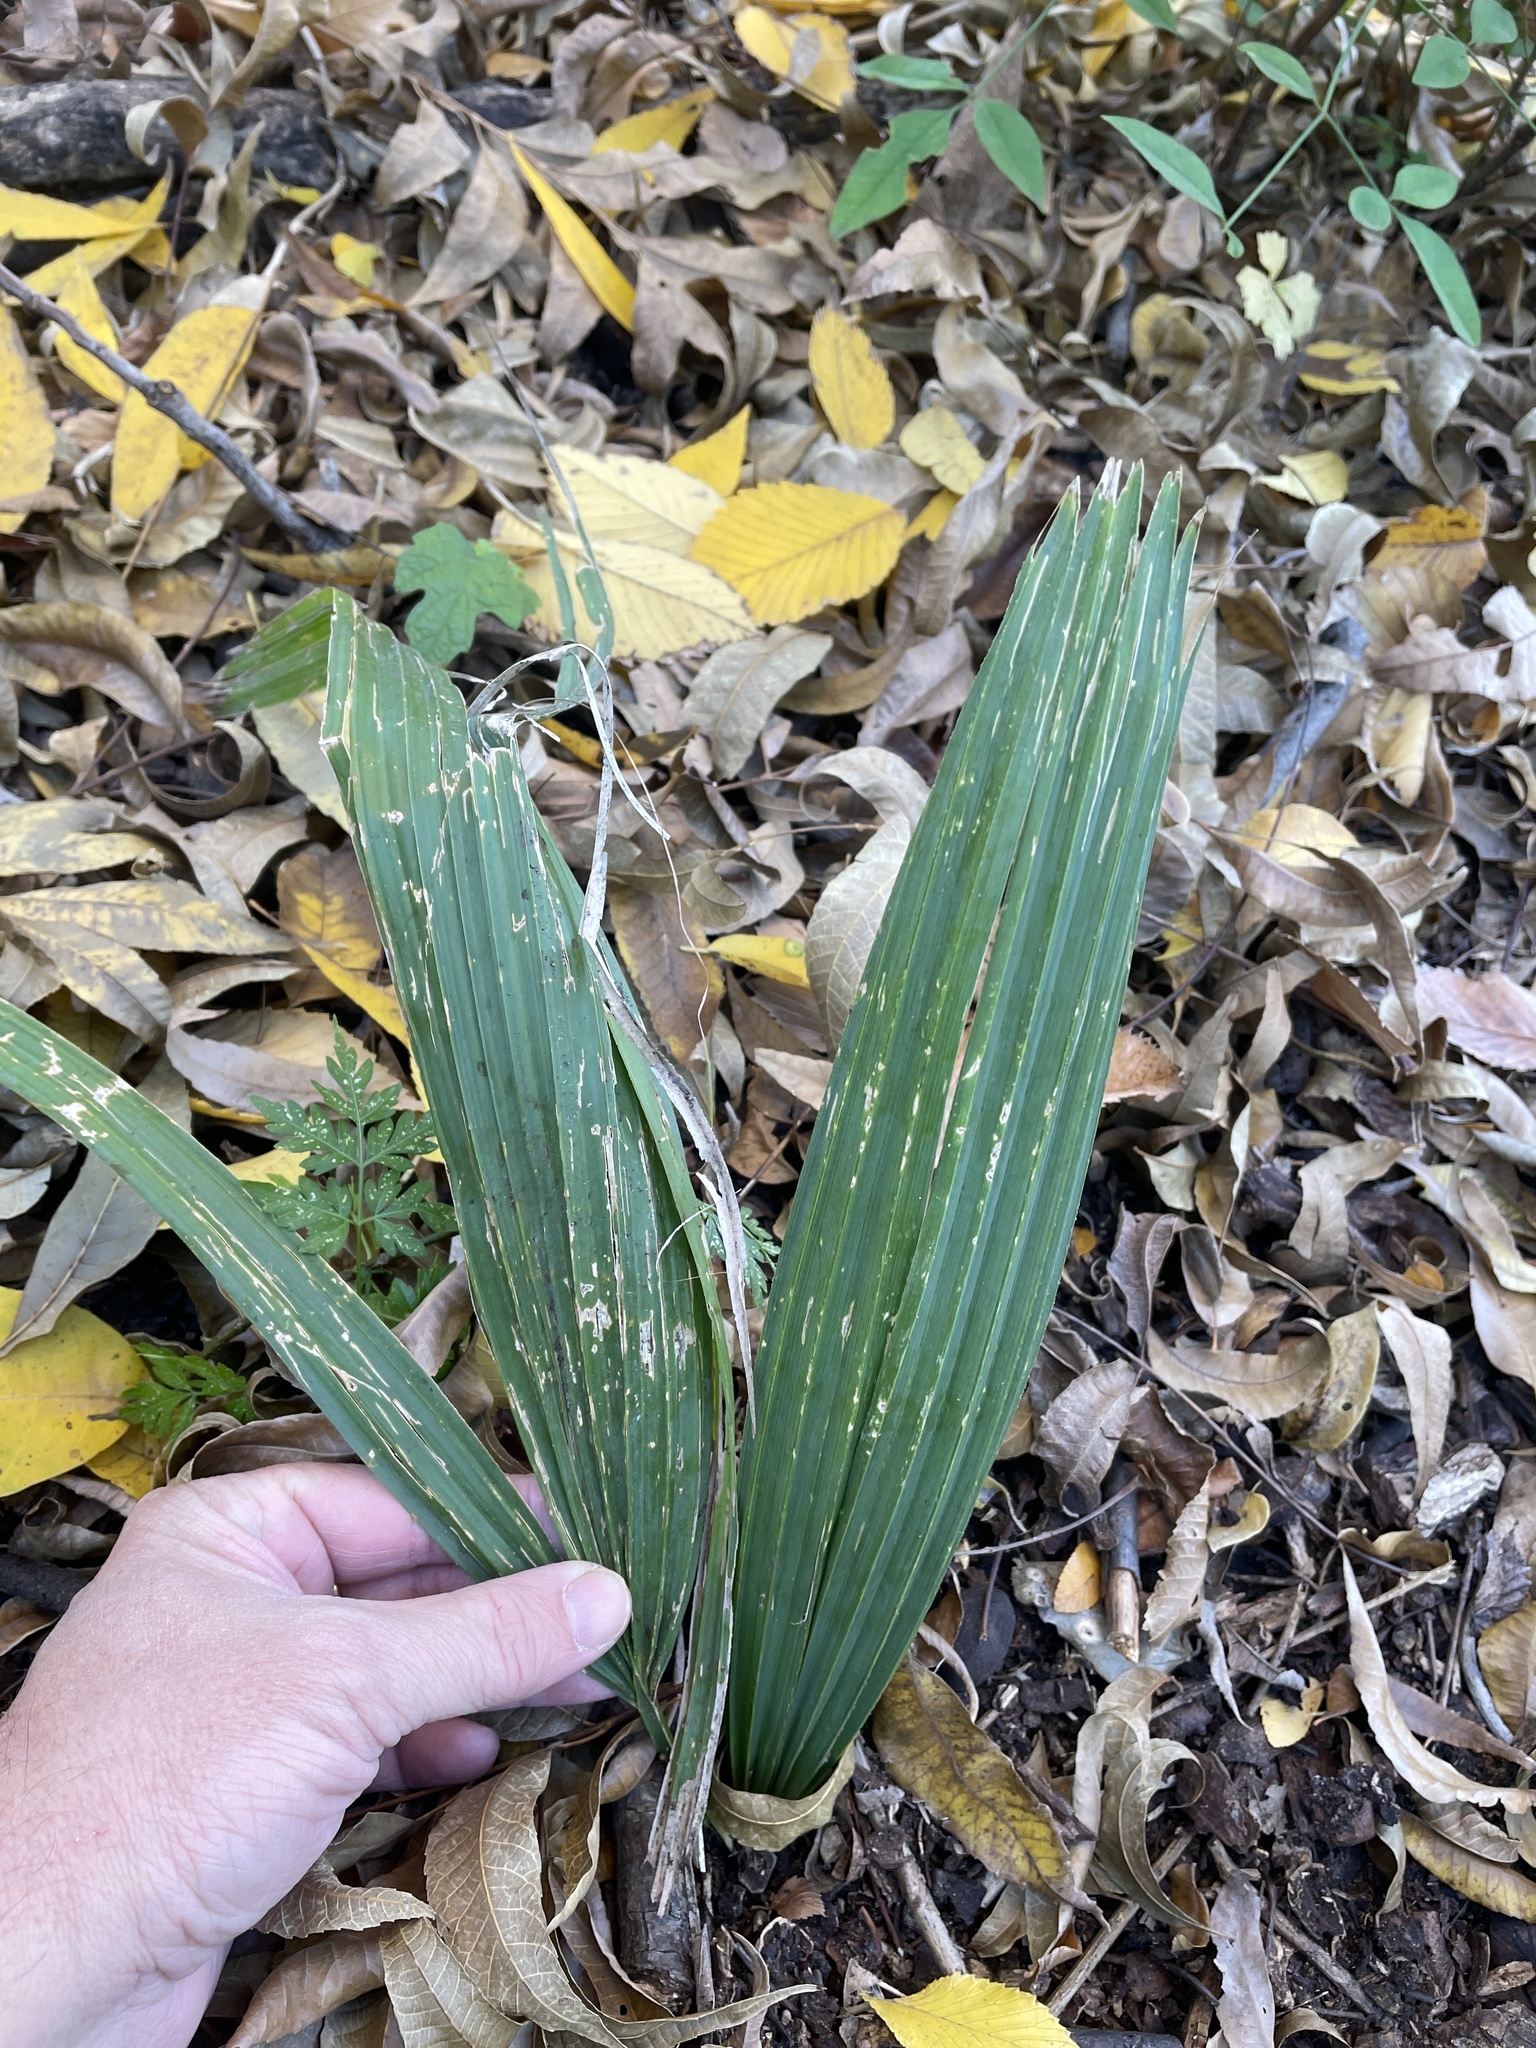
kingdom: Plantae
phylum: Tracheophyta
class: Liliopsida
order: Arecales
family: Arecaceae
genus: Sabal
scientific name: Sabal minor
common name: Dwarf palmetto
